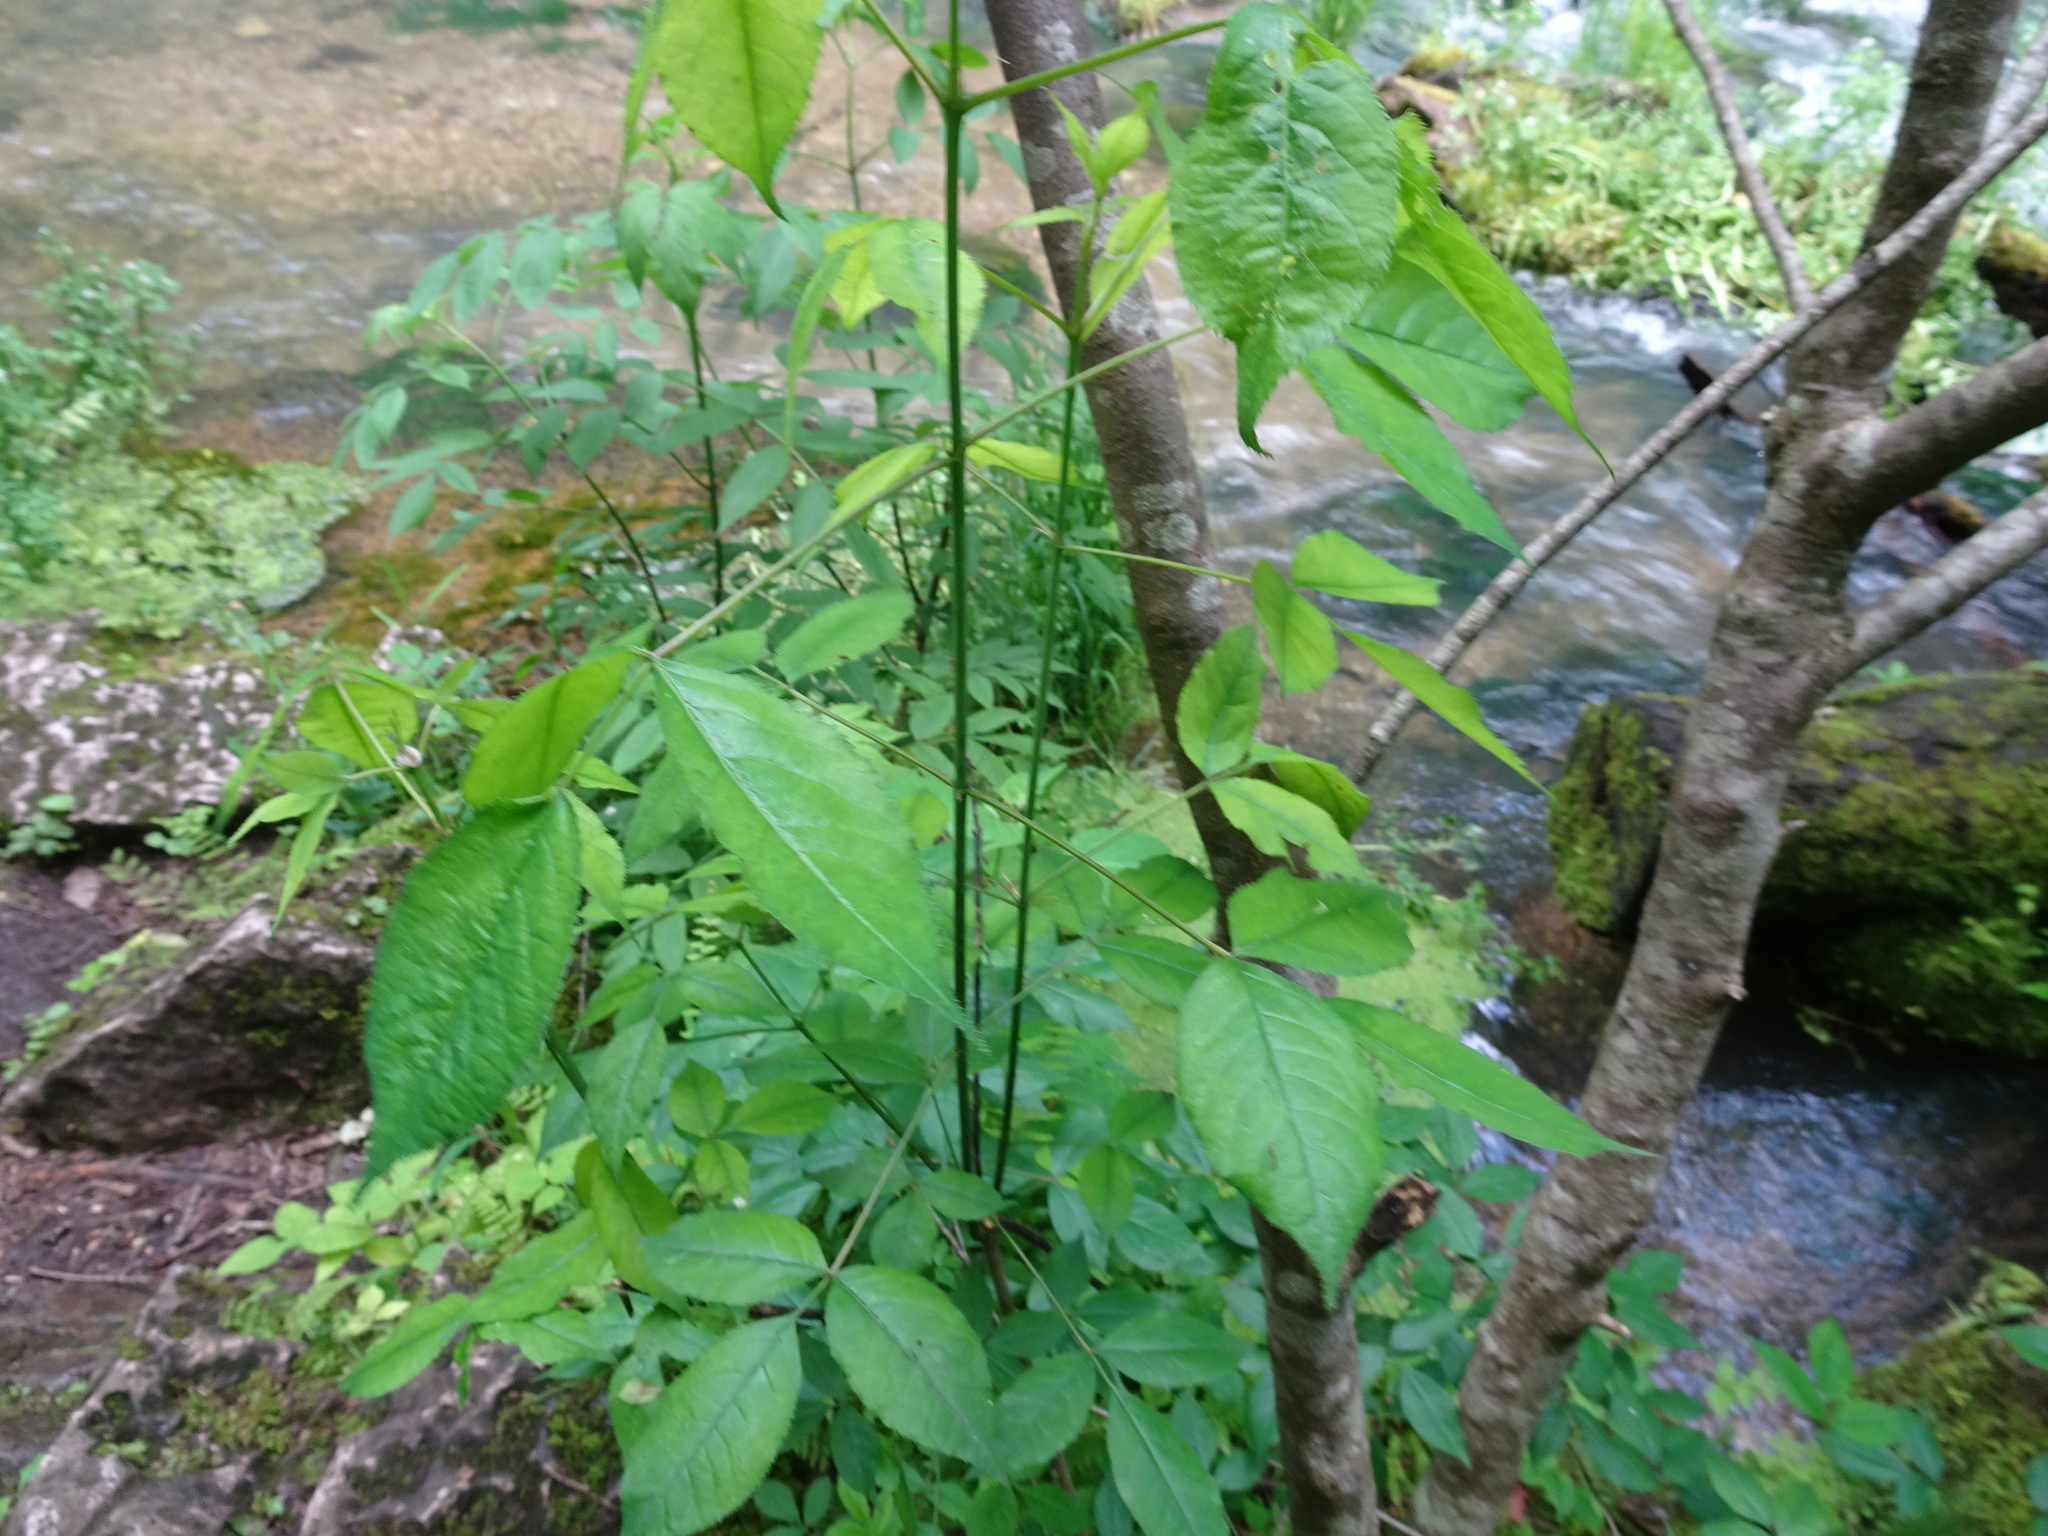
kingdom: Plantae
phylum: Tracheophyta
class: Magnoliopsida
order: Crossosomatales
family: Staphyleaceae
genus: Staphylea
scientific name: Staphylea trifolia
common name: American bladdernut
